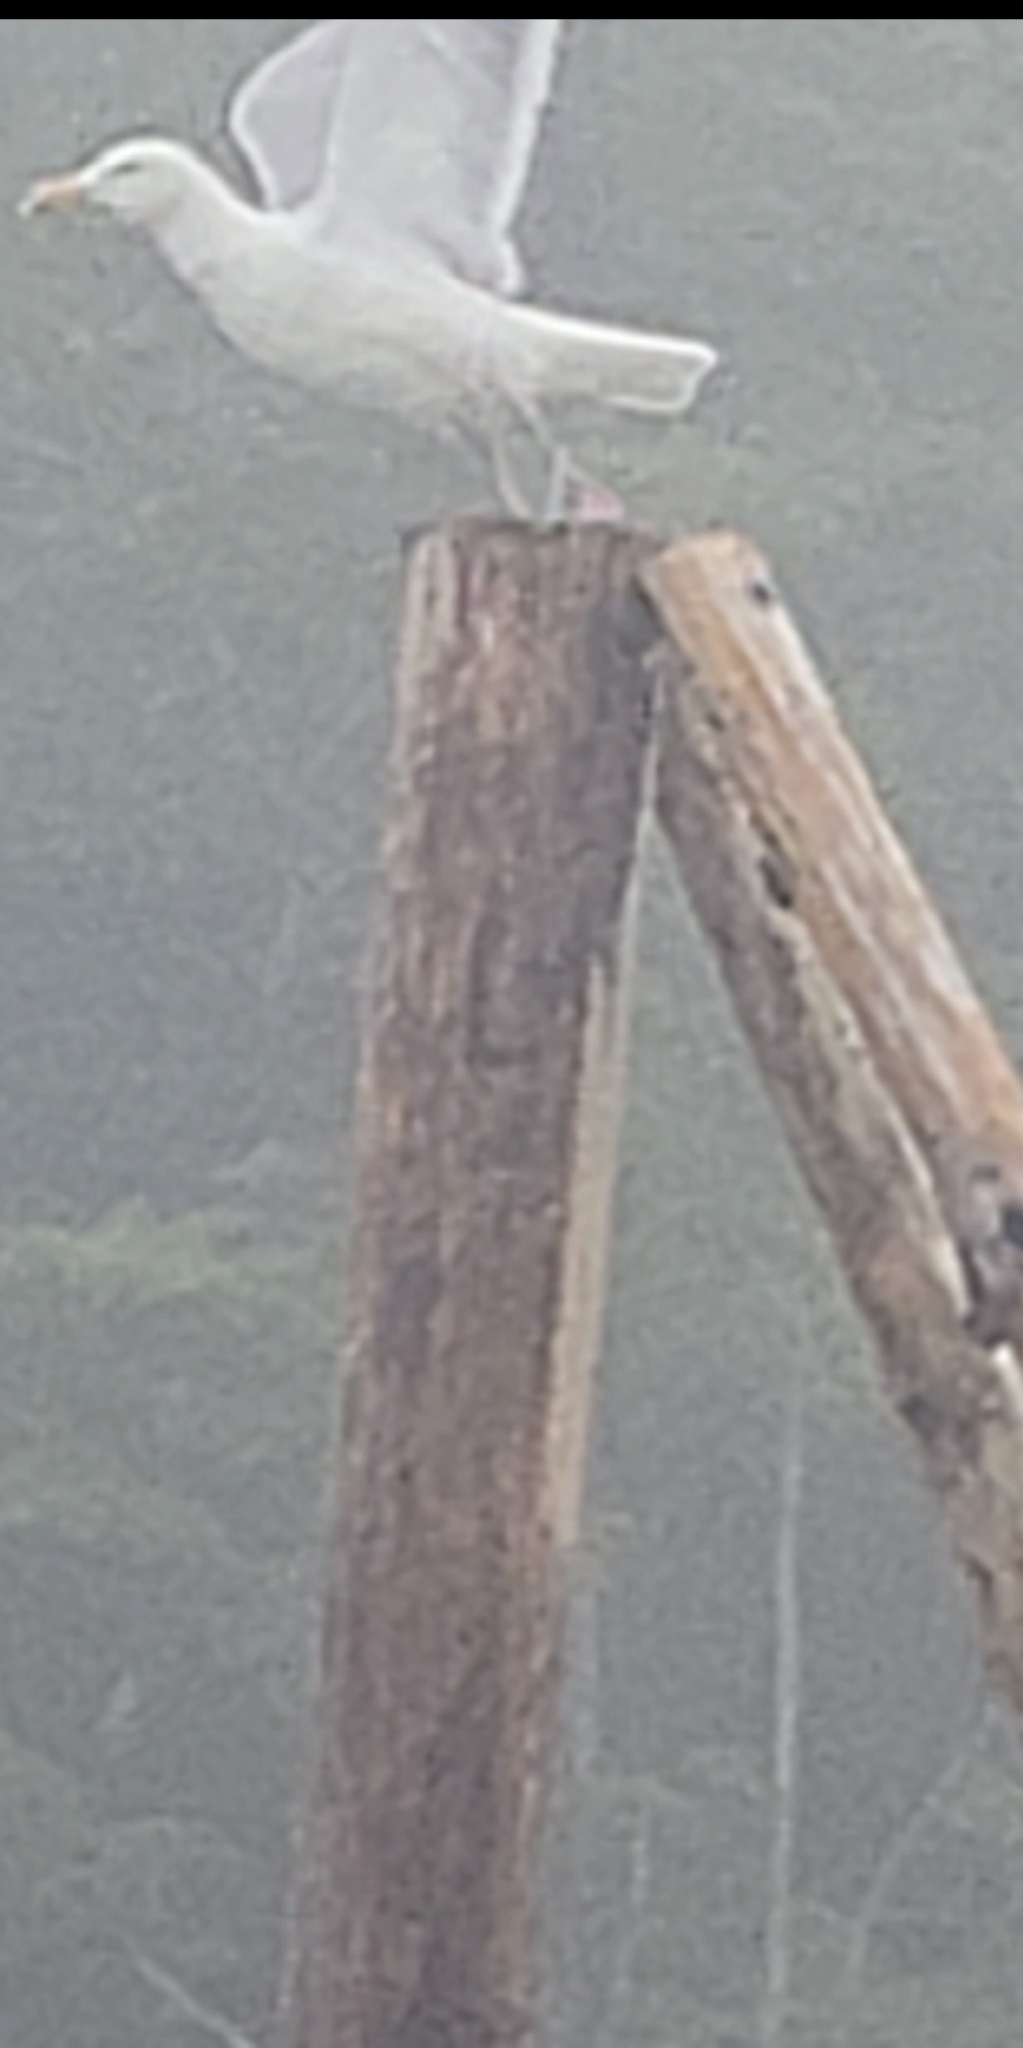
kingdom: Animalia
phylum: Chordata
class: Aves
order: Charadriiformes
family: Laridae
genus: Larus
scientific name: Larus argentatus
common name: Herring gull
